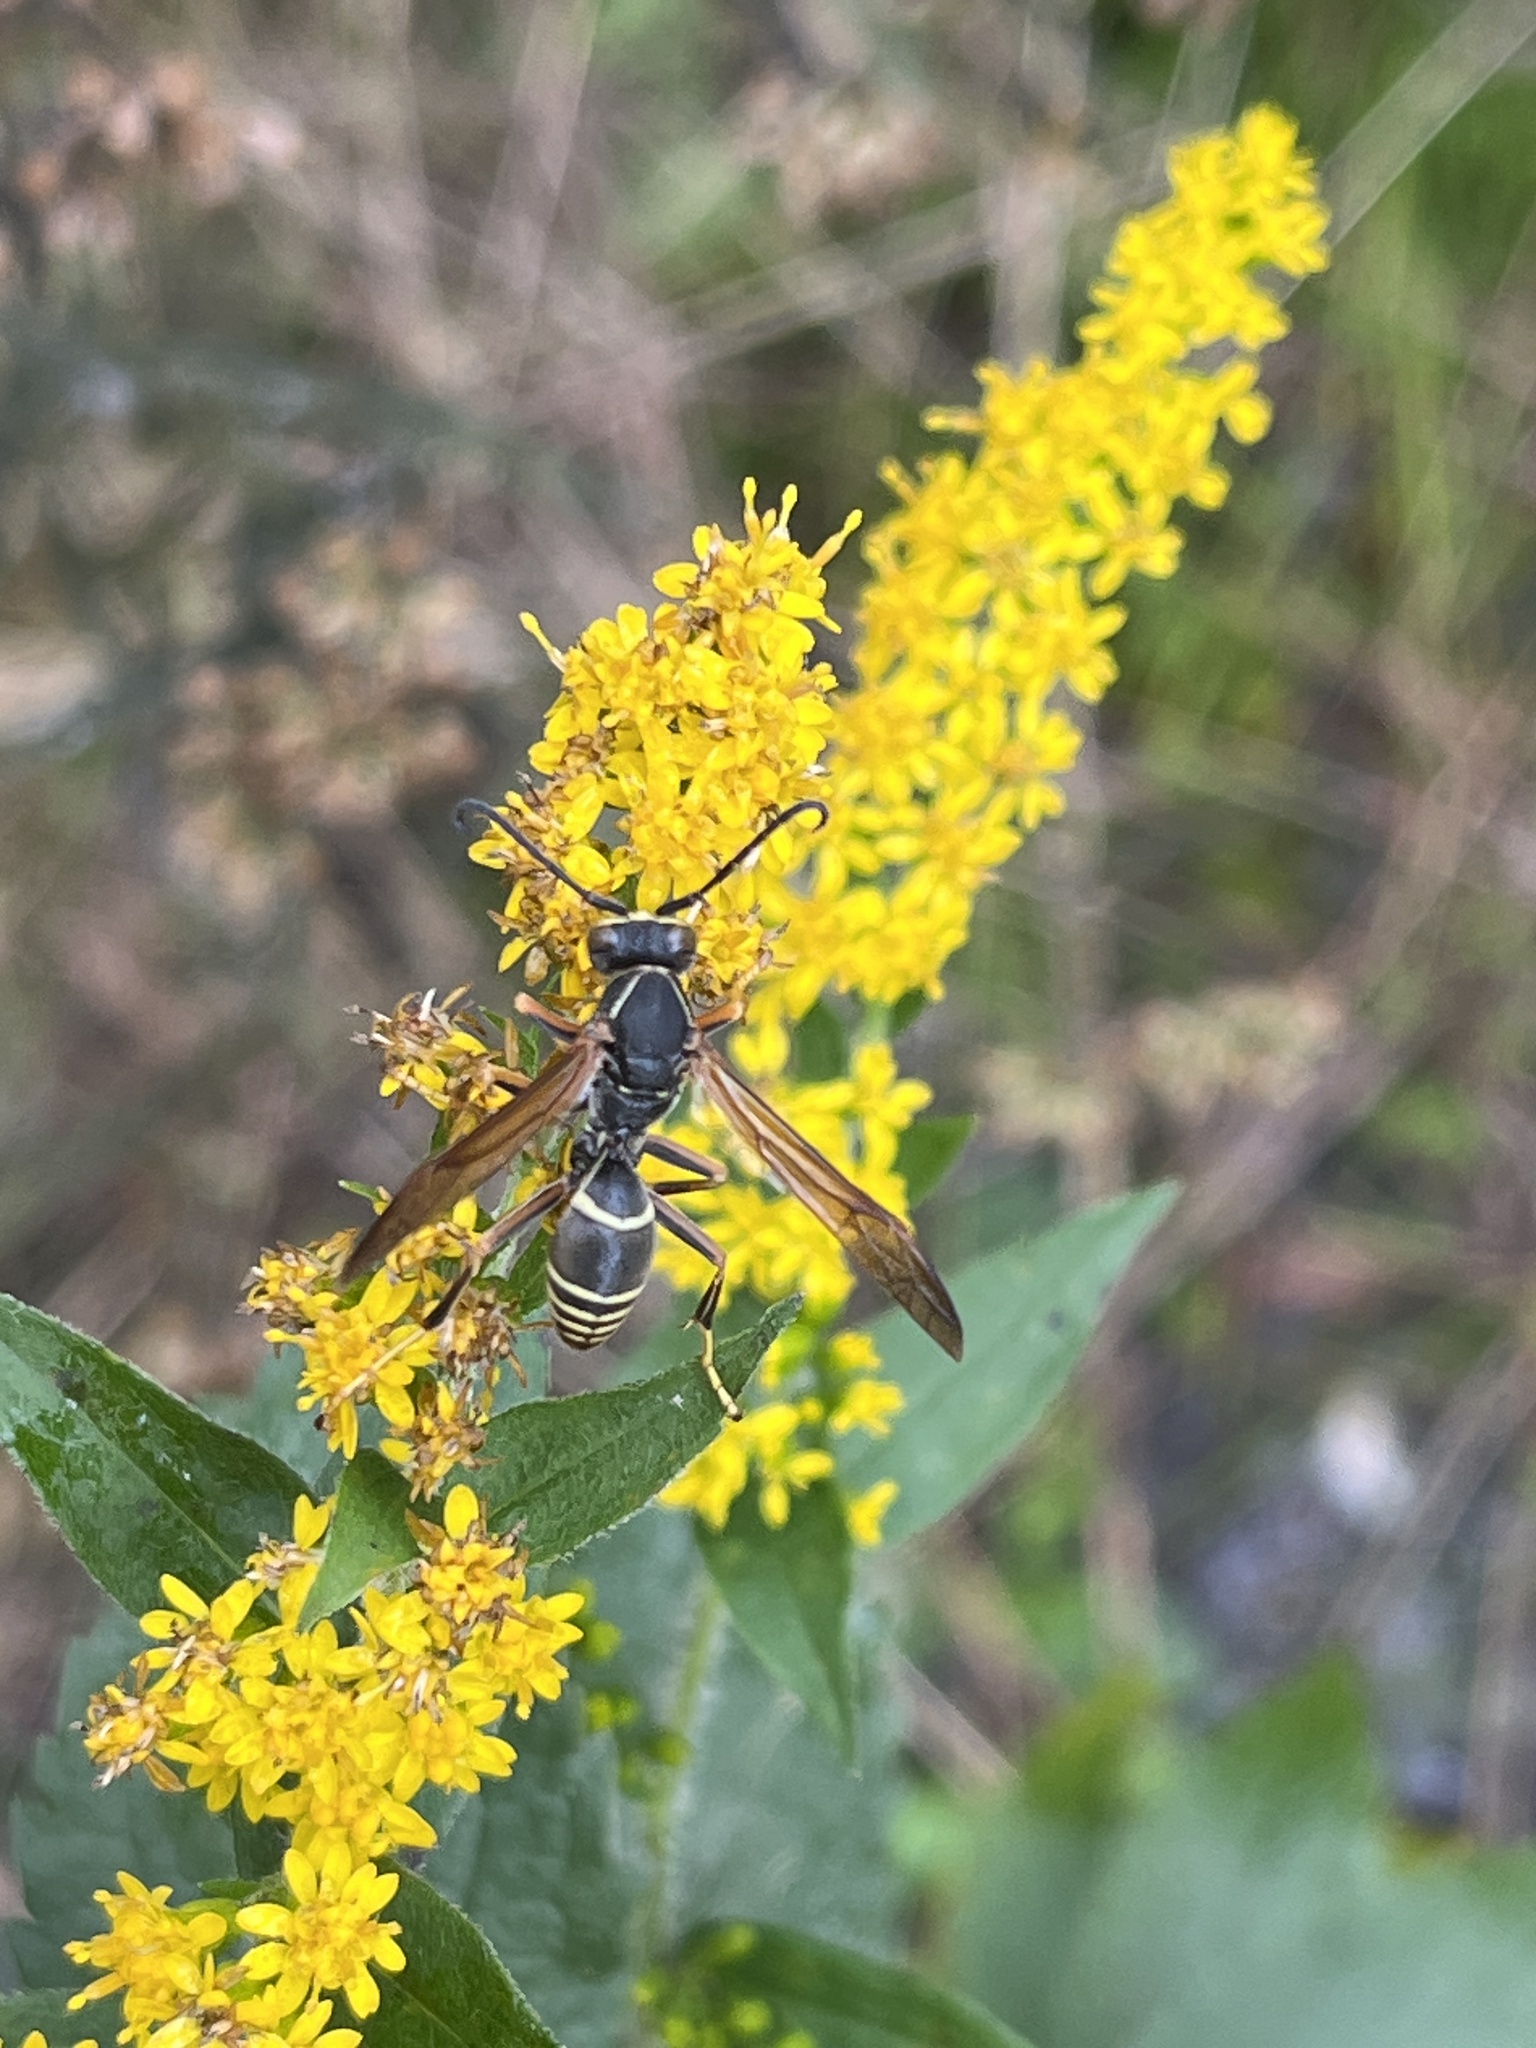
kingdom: Animalia
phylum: Arthropoda
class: Insecta
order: Hymenoptera
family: Eumenidae
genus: Polistes
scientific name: Polistes fuscatus
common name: Dark paper wasp
